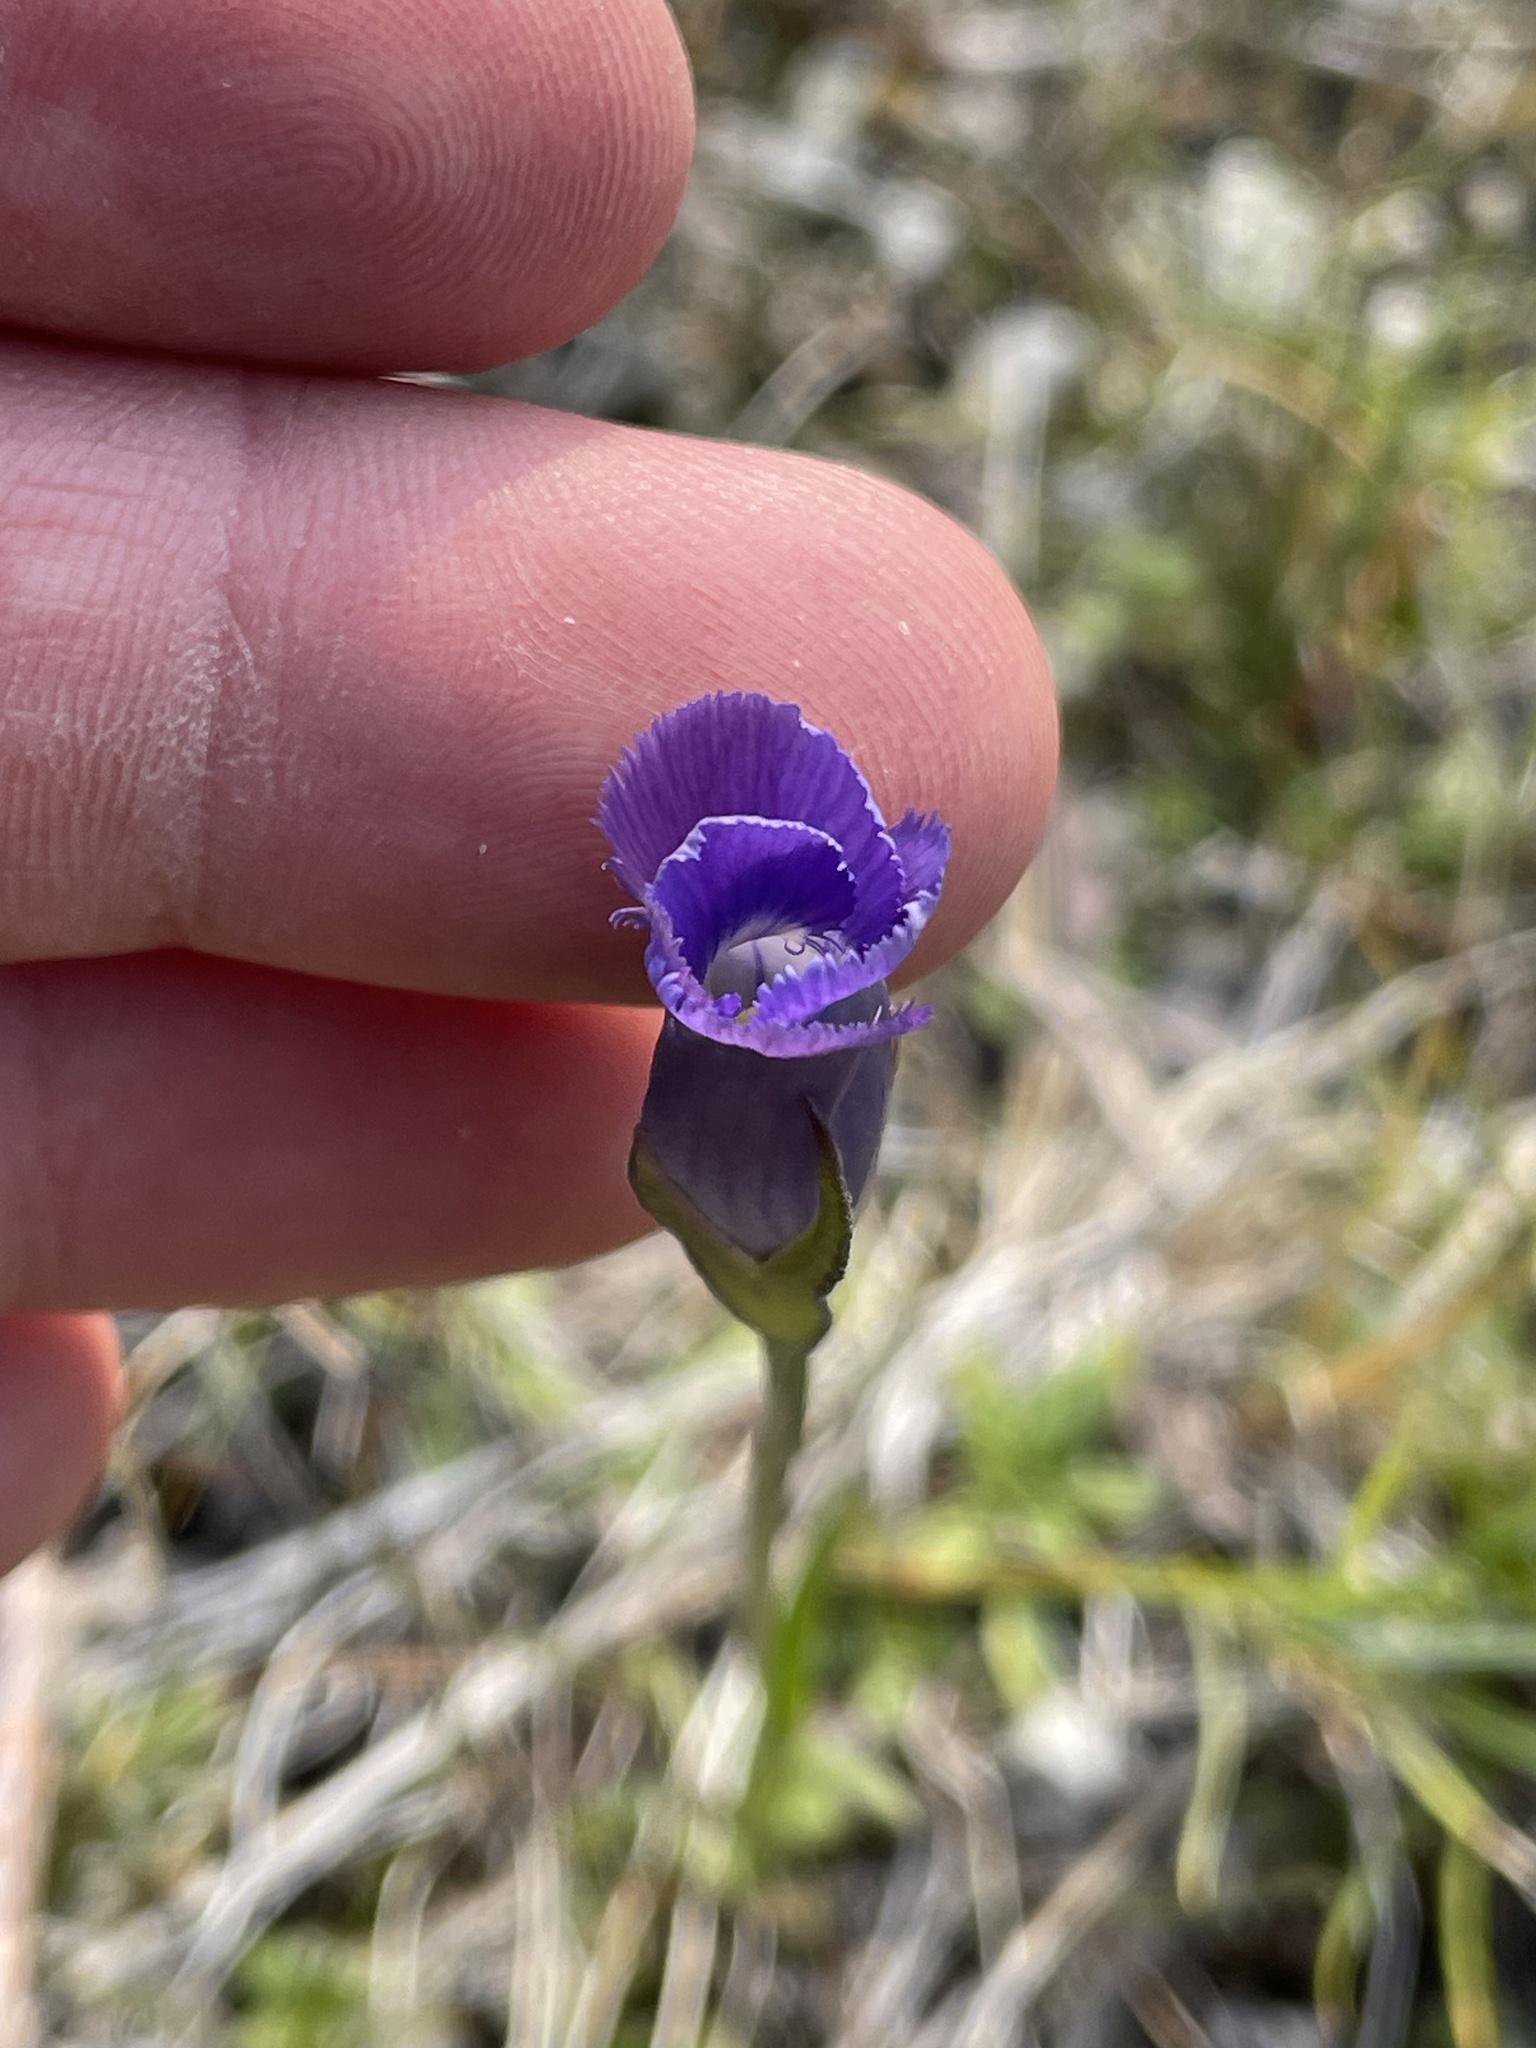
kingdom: Plantae
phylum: Tracheophyta
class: Magnoliopsida
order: Gentianales
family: Gentianaceae
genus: Gentianopsis
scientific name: Gentianopsis virgata
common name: Lesser fringed-gentian
